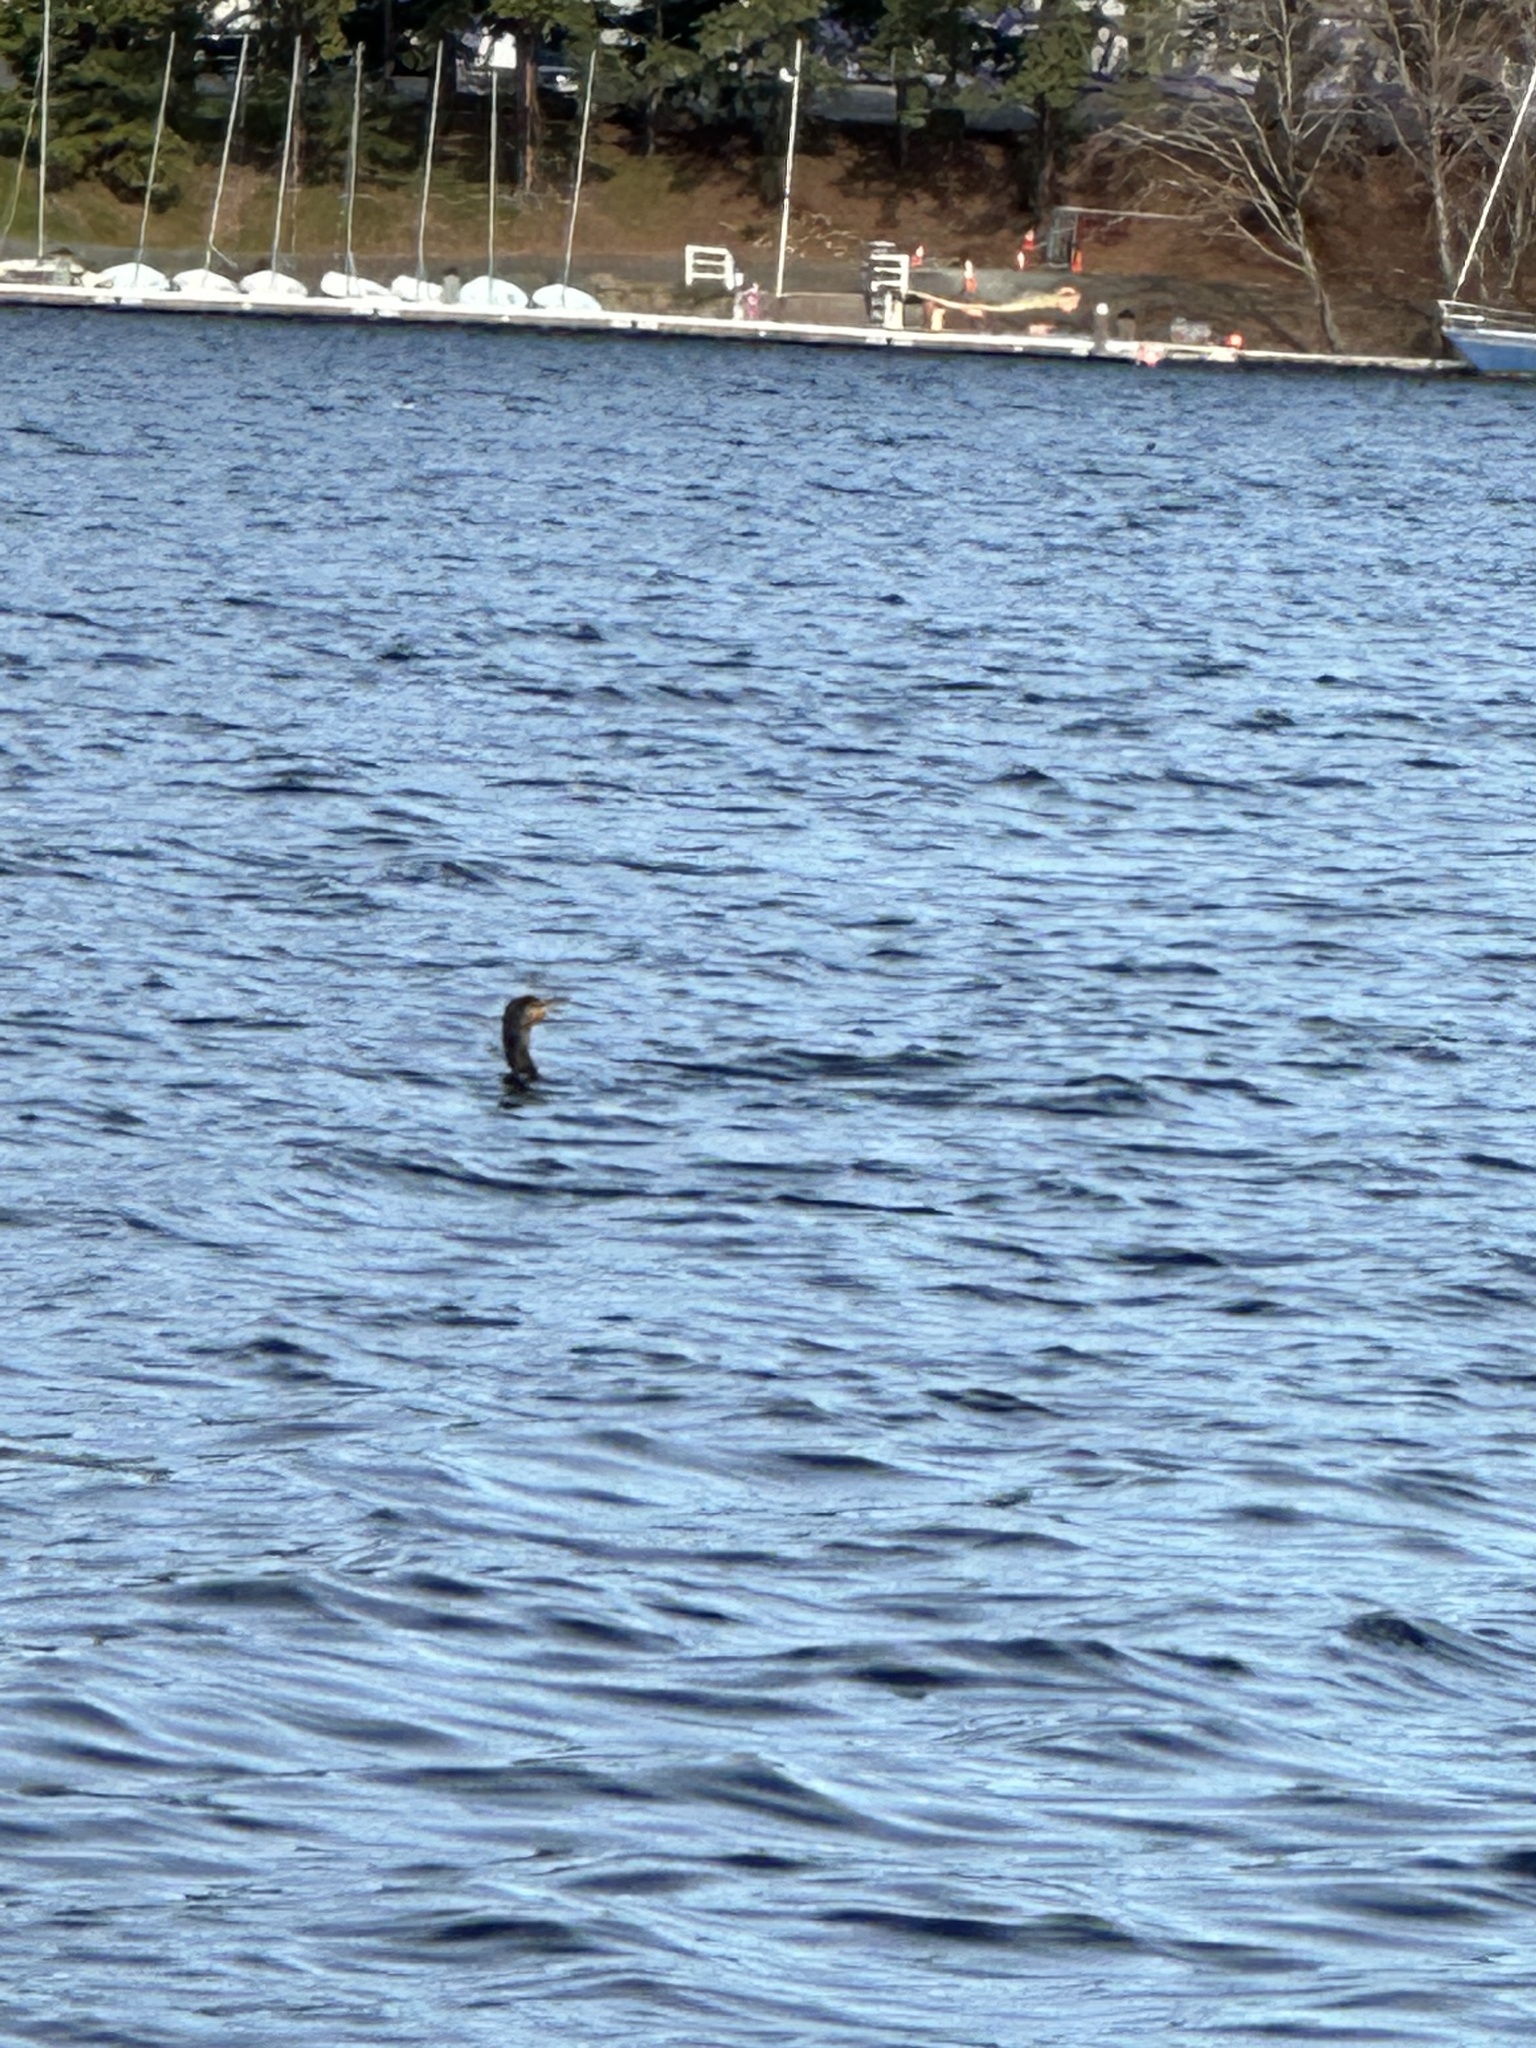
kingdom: Animalia
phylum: Chordata
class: Aves
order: Suliformes
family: Phalacrocoracidae
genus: Phalacrocorax
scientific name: Phalacrocorax auritus
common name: Double-crested cormorant
